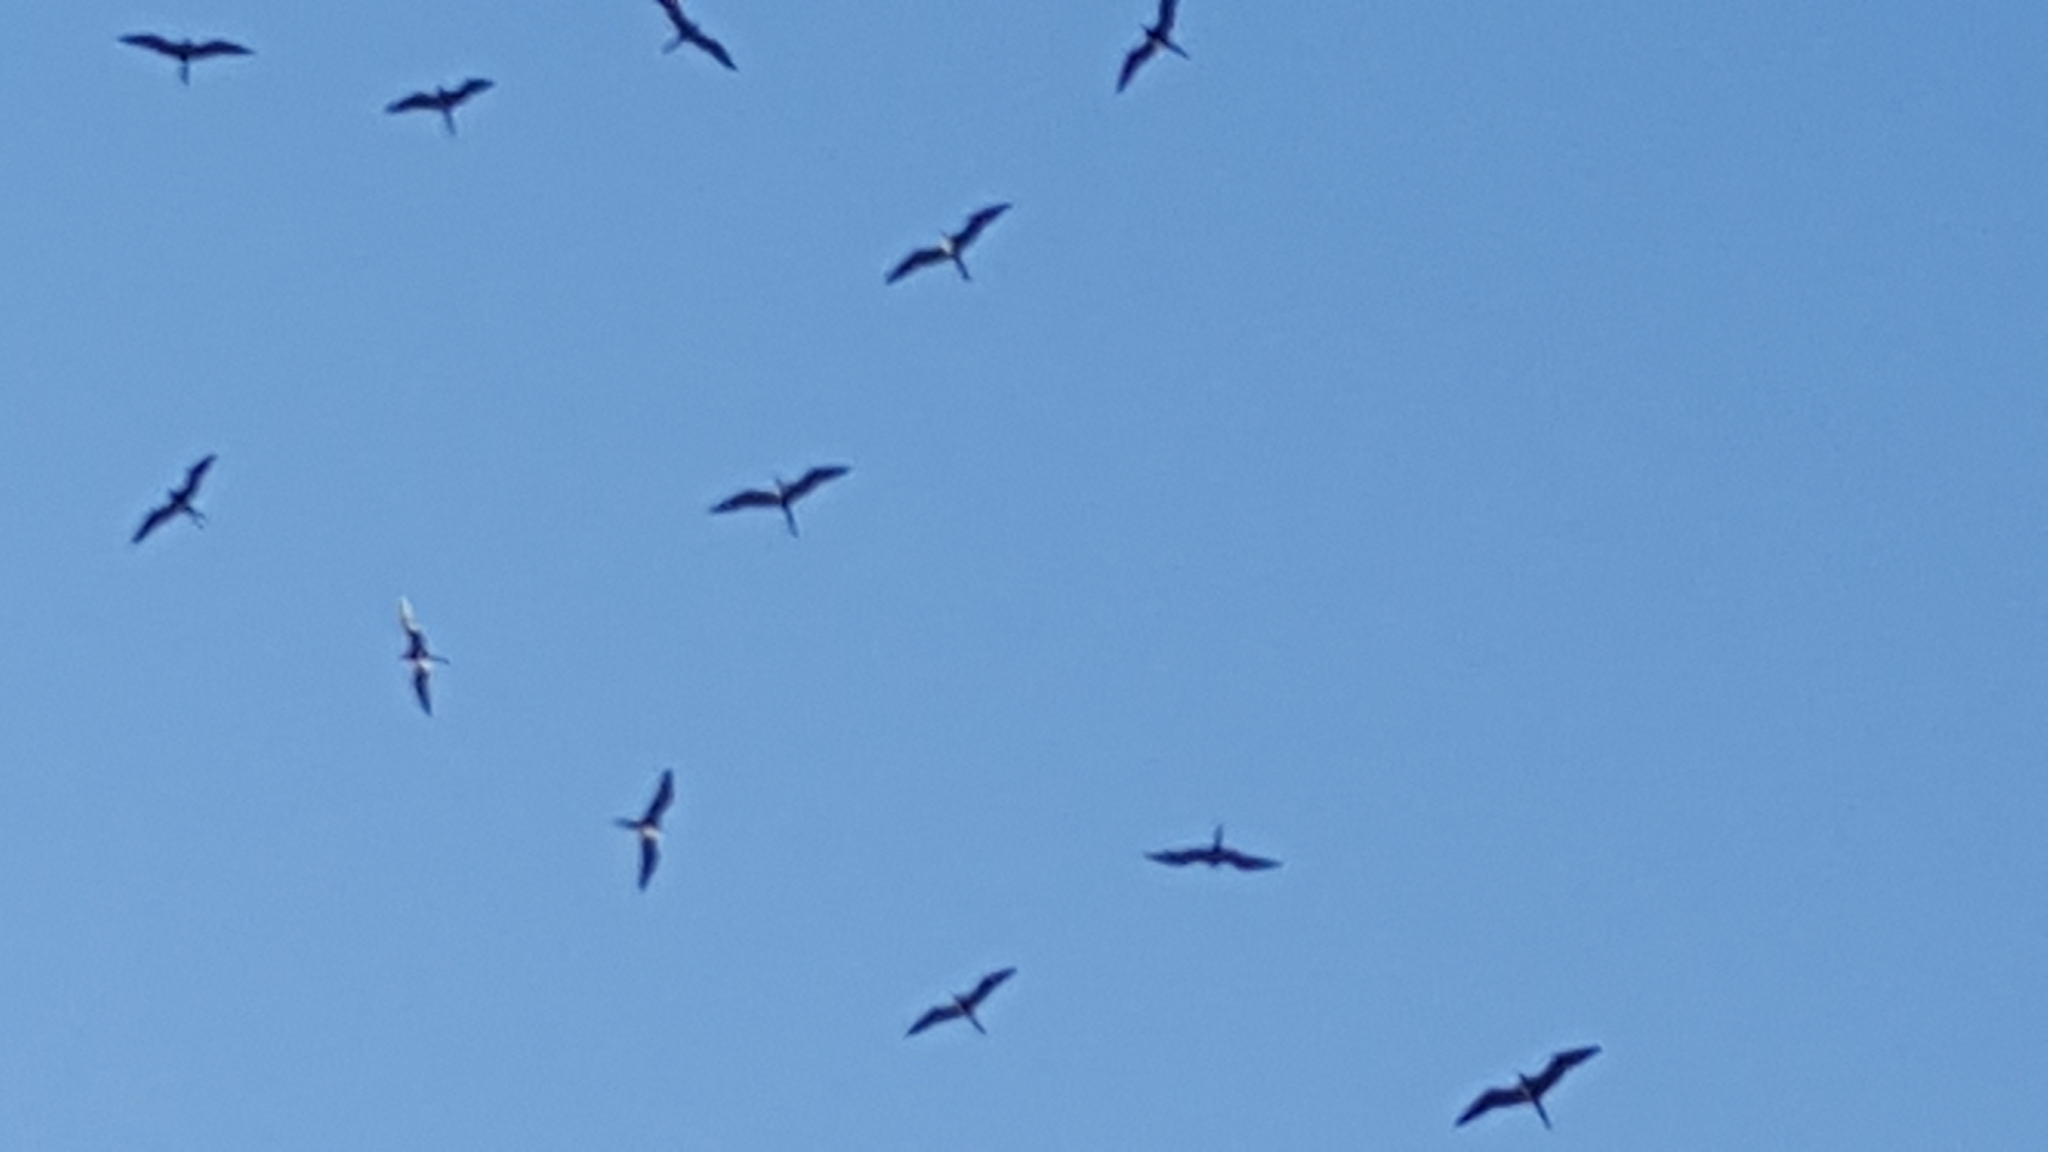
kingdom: Animalia
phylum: Chordata
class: Aves
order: Suliformes
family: Fregatidae
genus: Fregata
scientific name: Fregata magnificens
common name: Magnificent frigatebird
